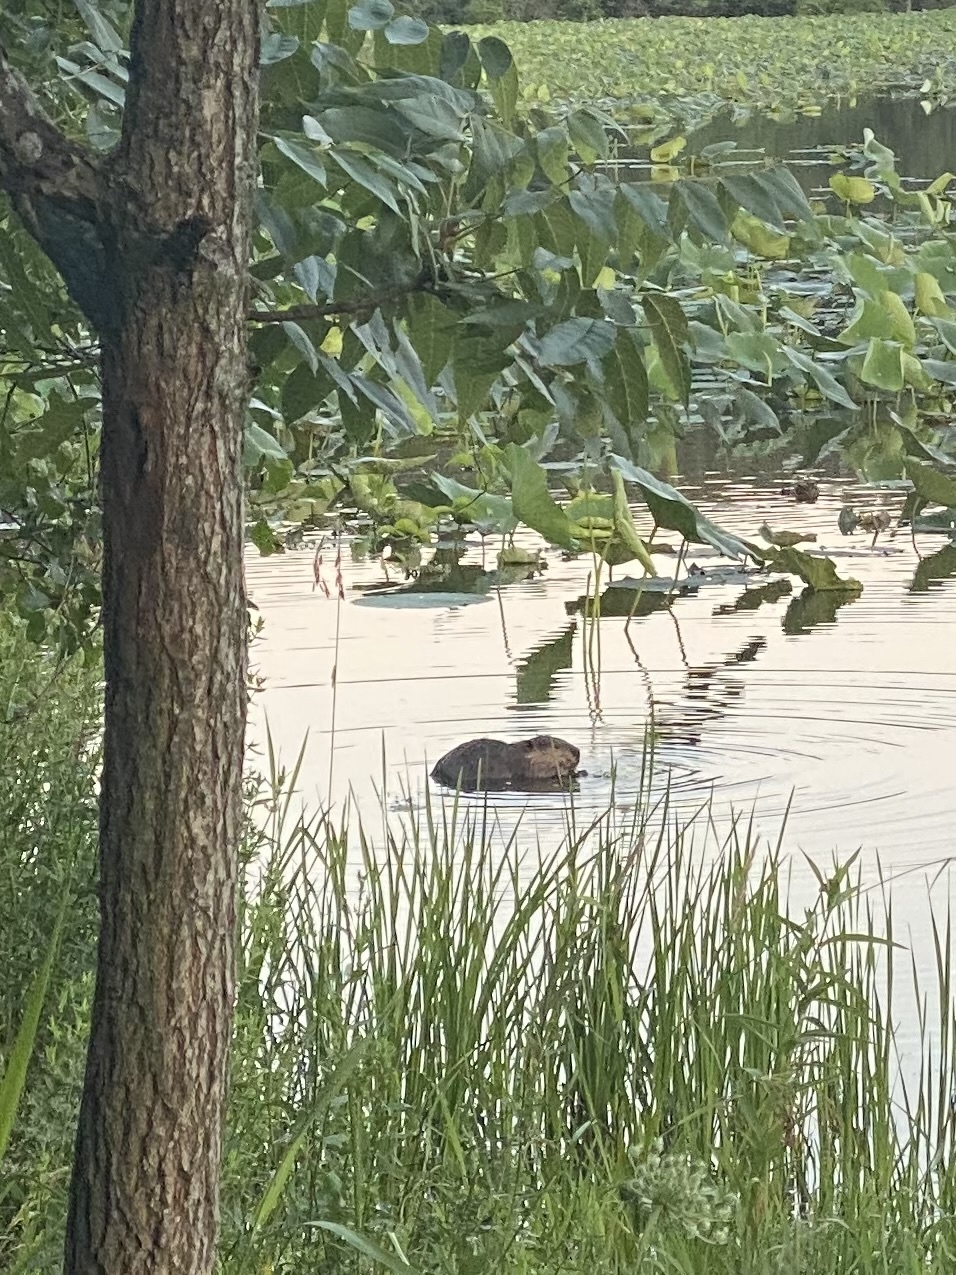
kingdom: Animalia
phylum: Chordata
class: Mammalia
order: Rodentia
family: Castoridae
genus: Castor
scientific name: Castor canadensis
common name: American beaver
